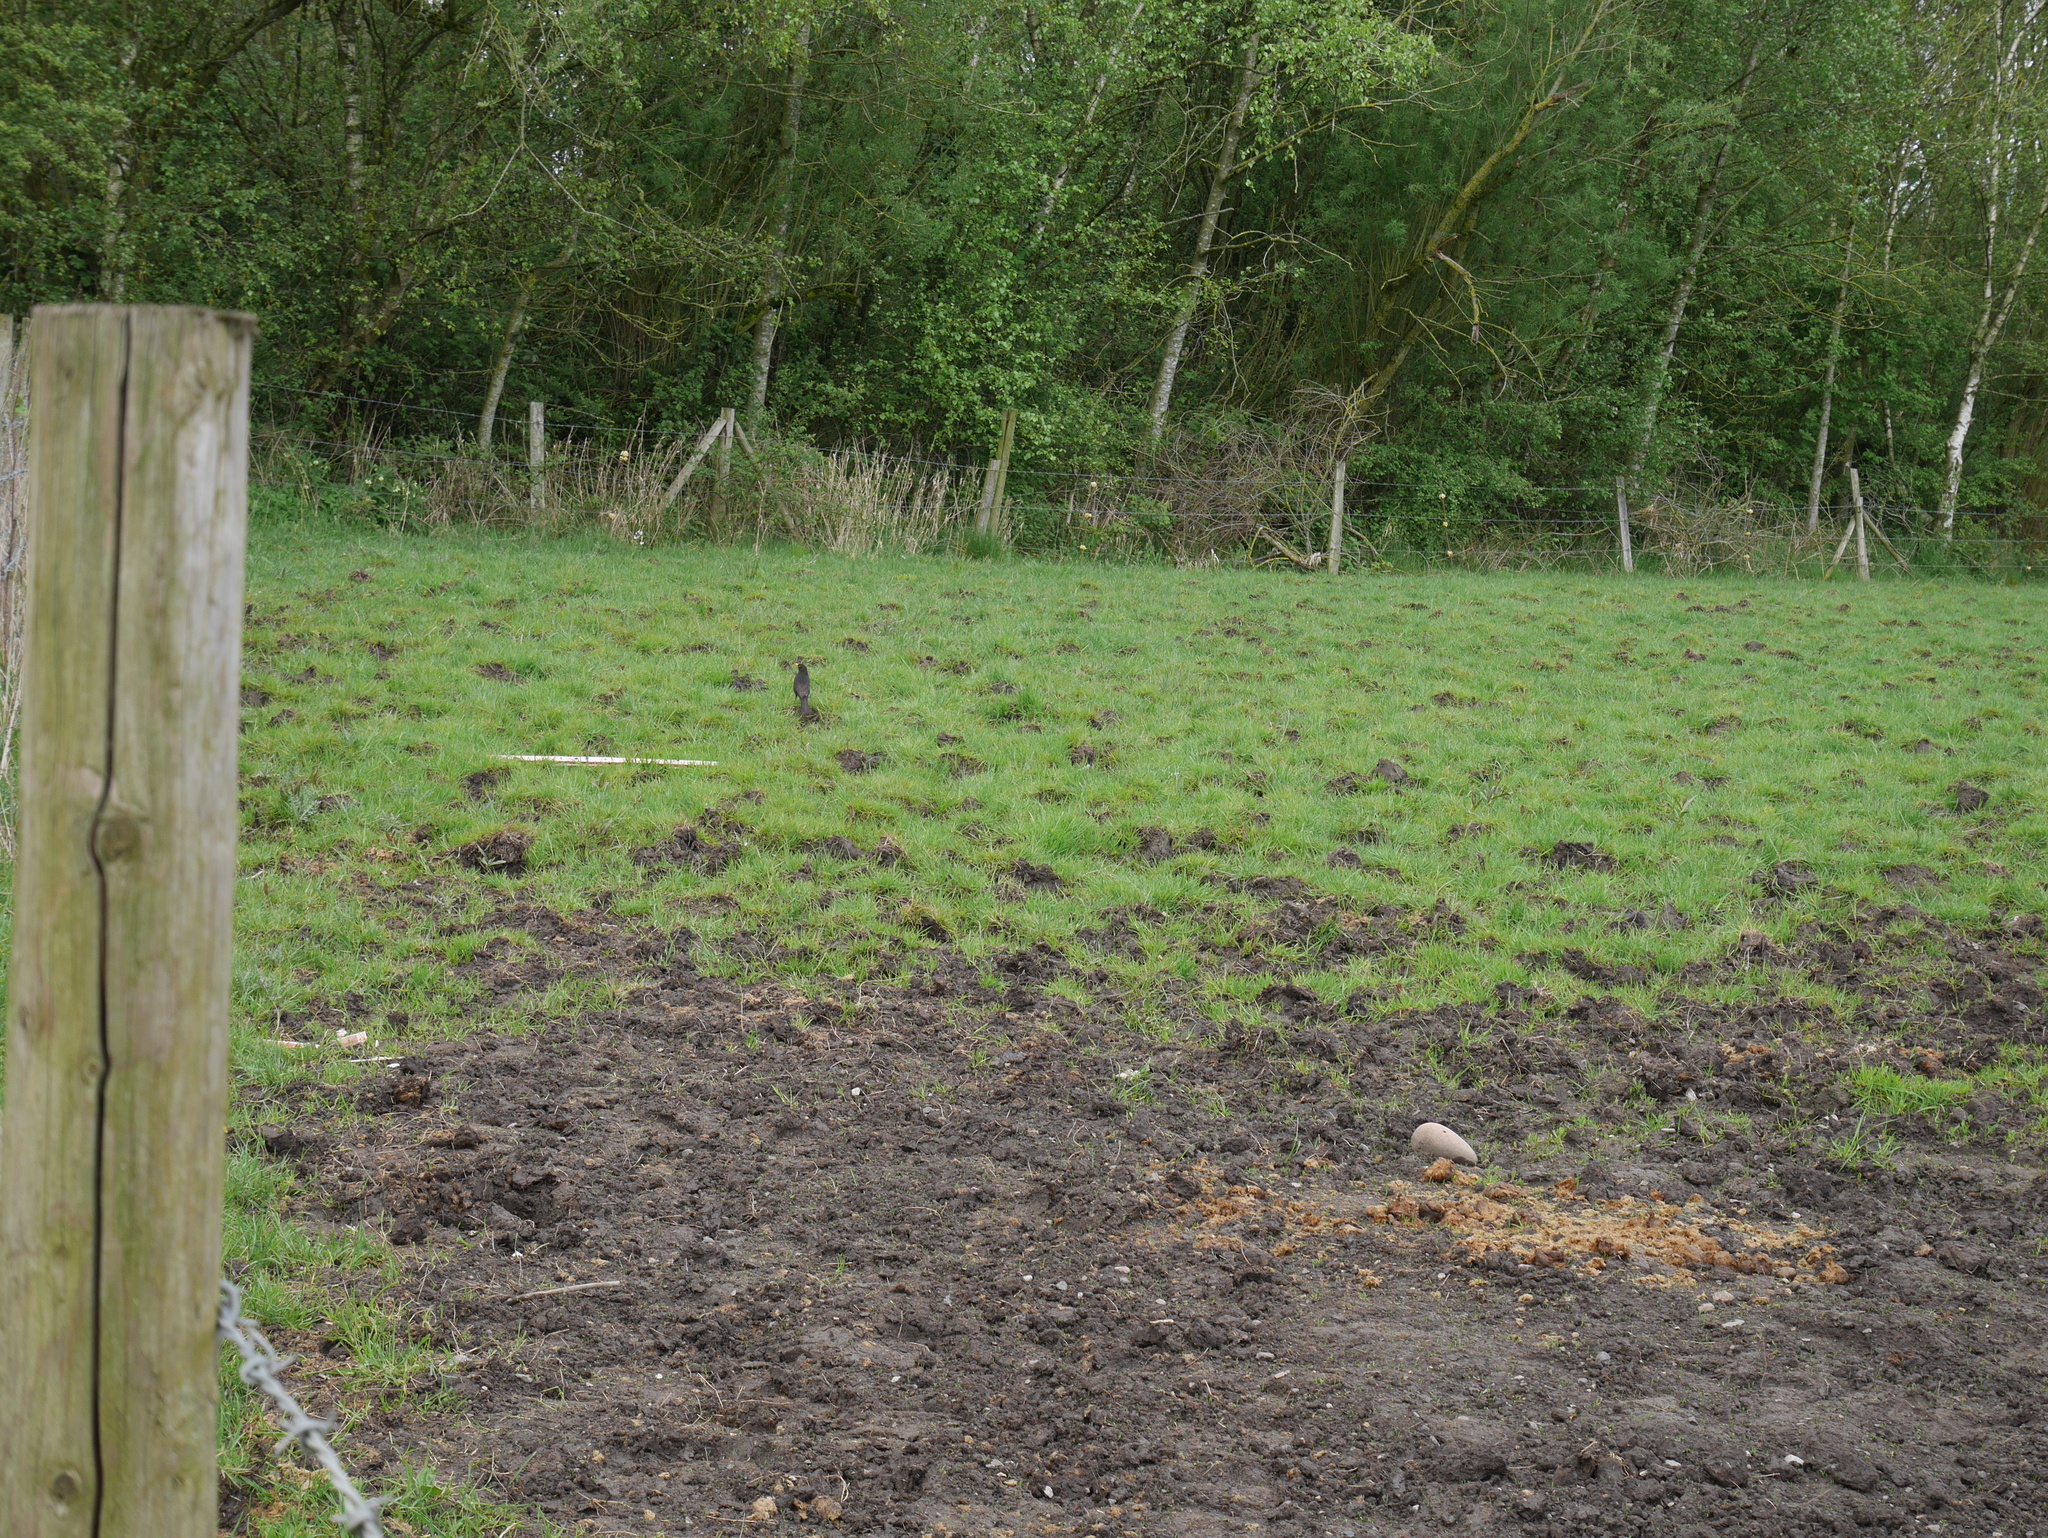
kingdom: Animalia
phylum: Chordata
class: Aves
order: Passeriformes
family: Turdidae
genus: Turdus
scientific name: Turdus merula
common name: Common blackbird
